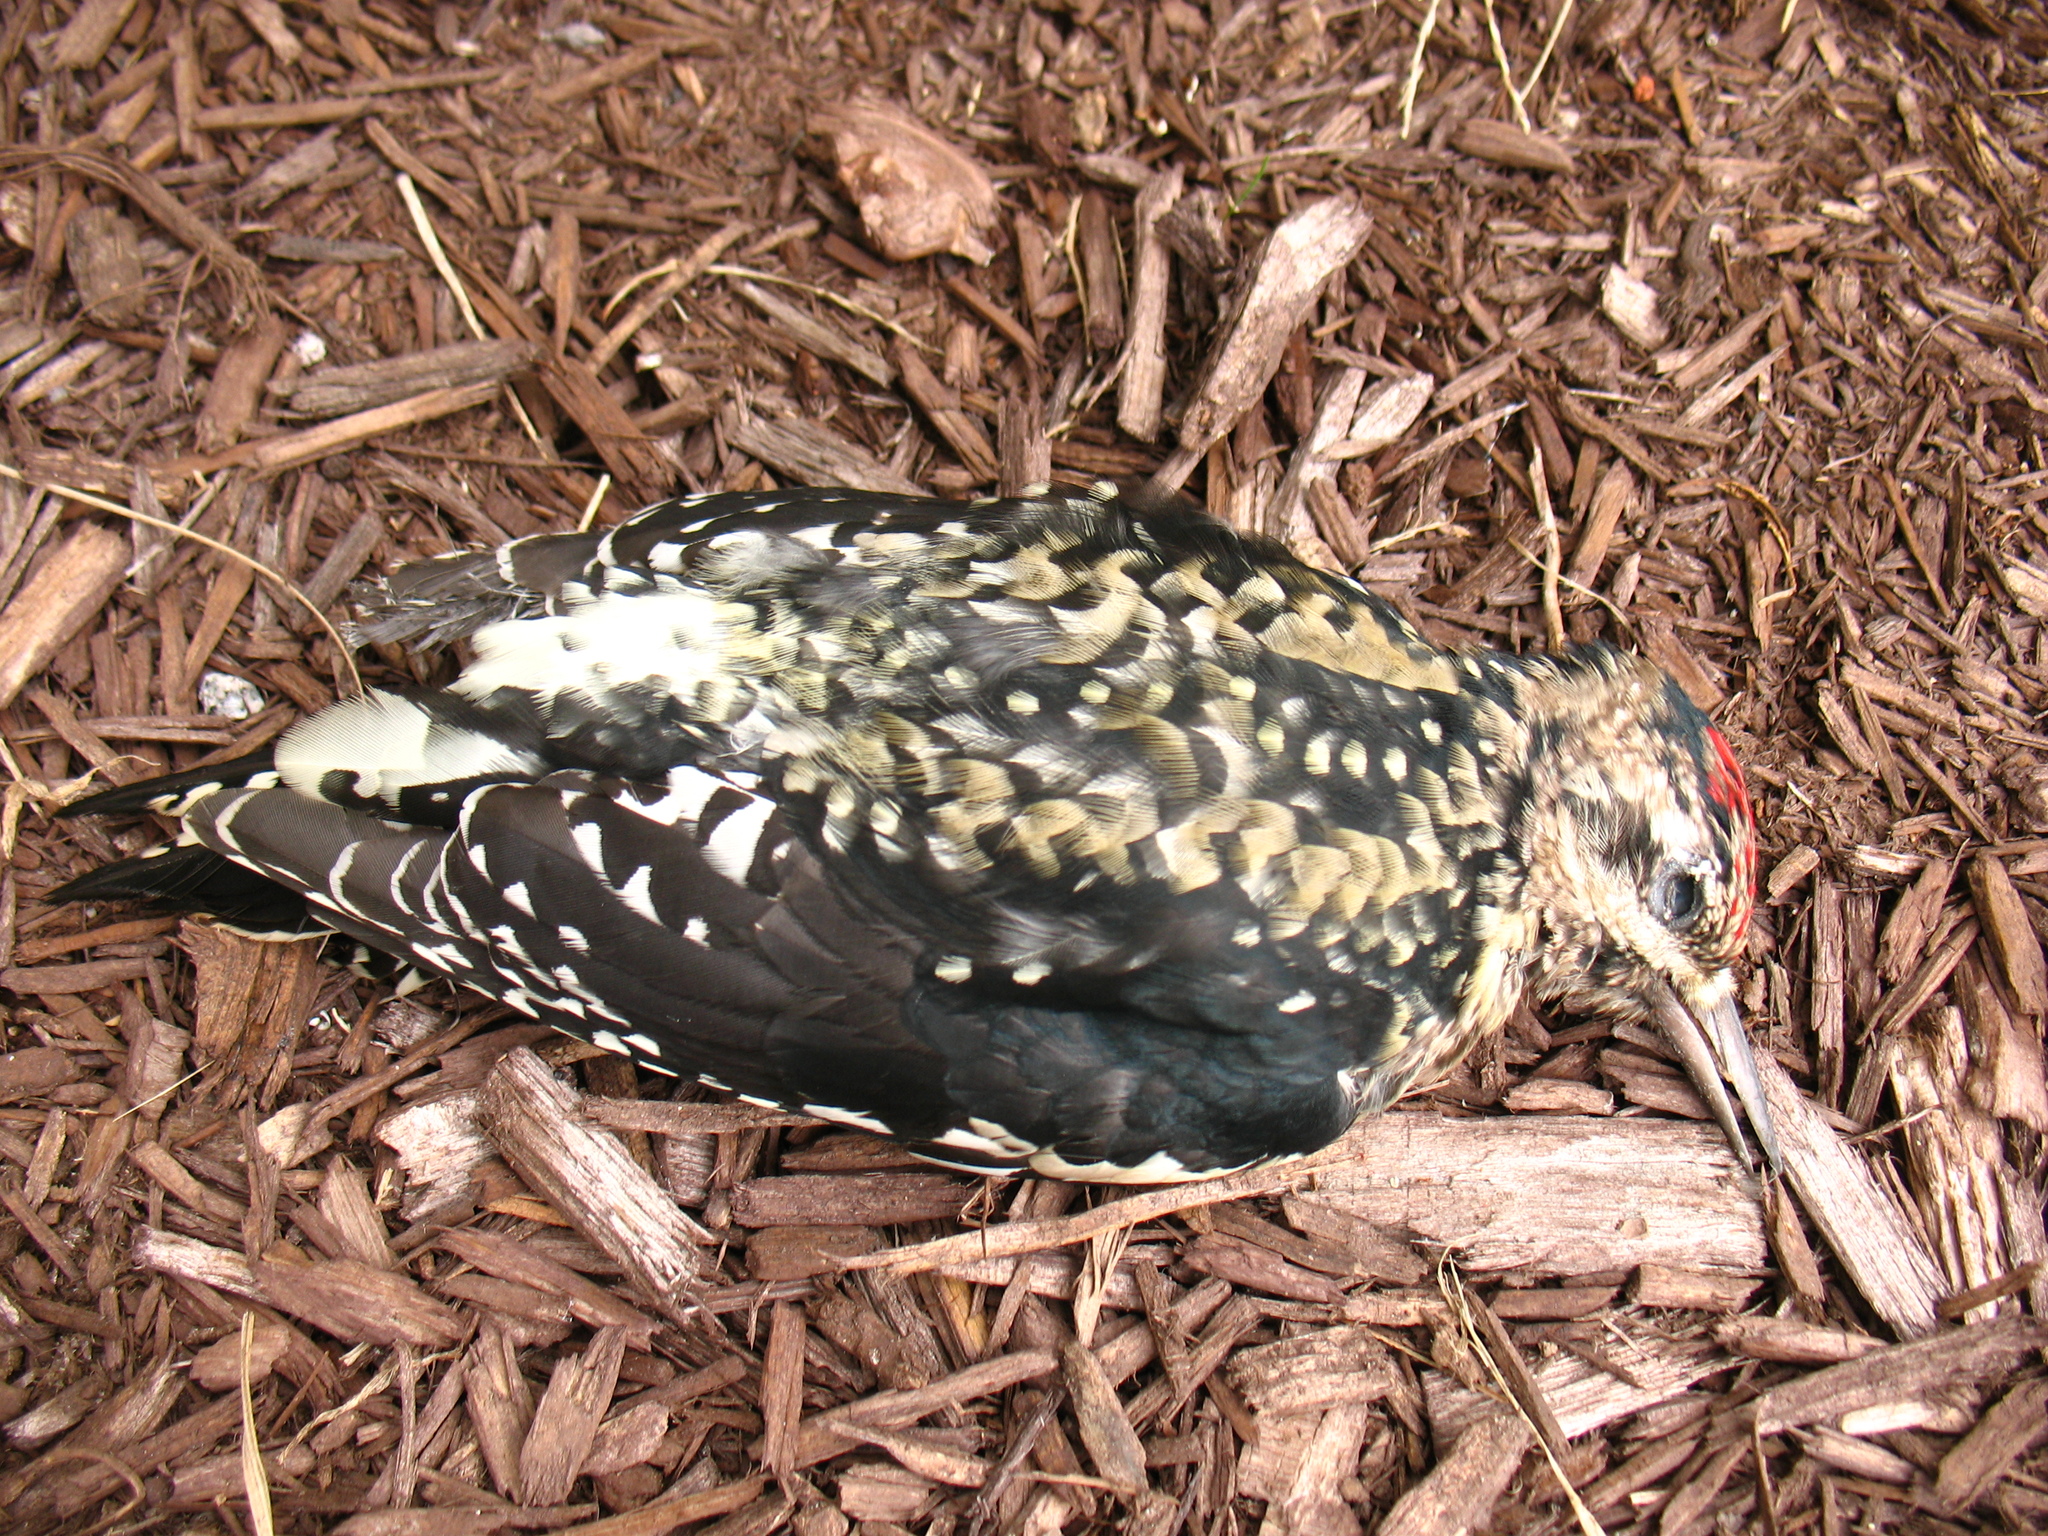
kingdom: Animalia
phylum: Chordata
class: Aves
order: Piciformes
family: Picidae
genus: Sphyrapicus
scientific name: Sphyrapicus varius
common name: Yellow-bellied sapsucker
